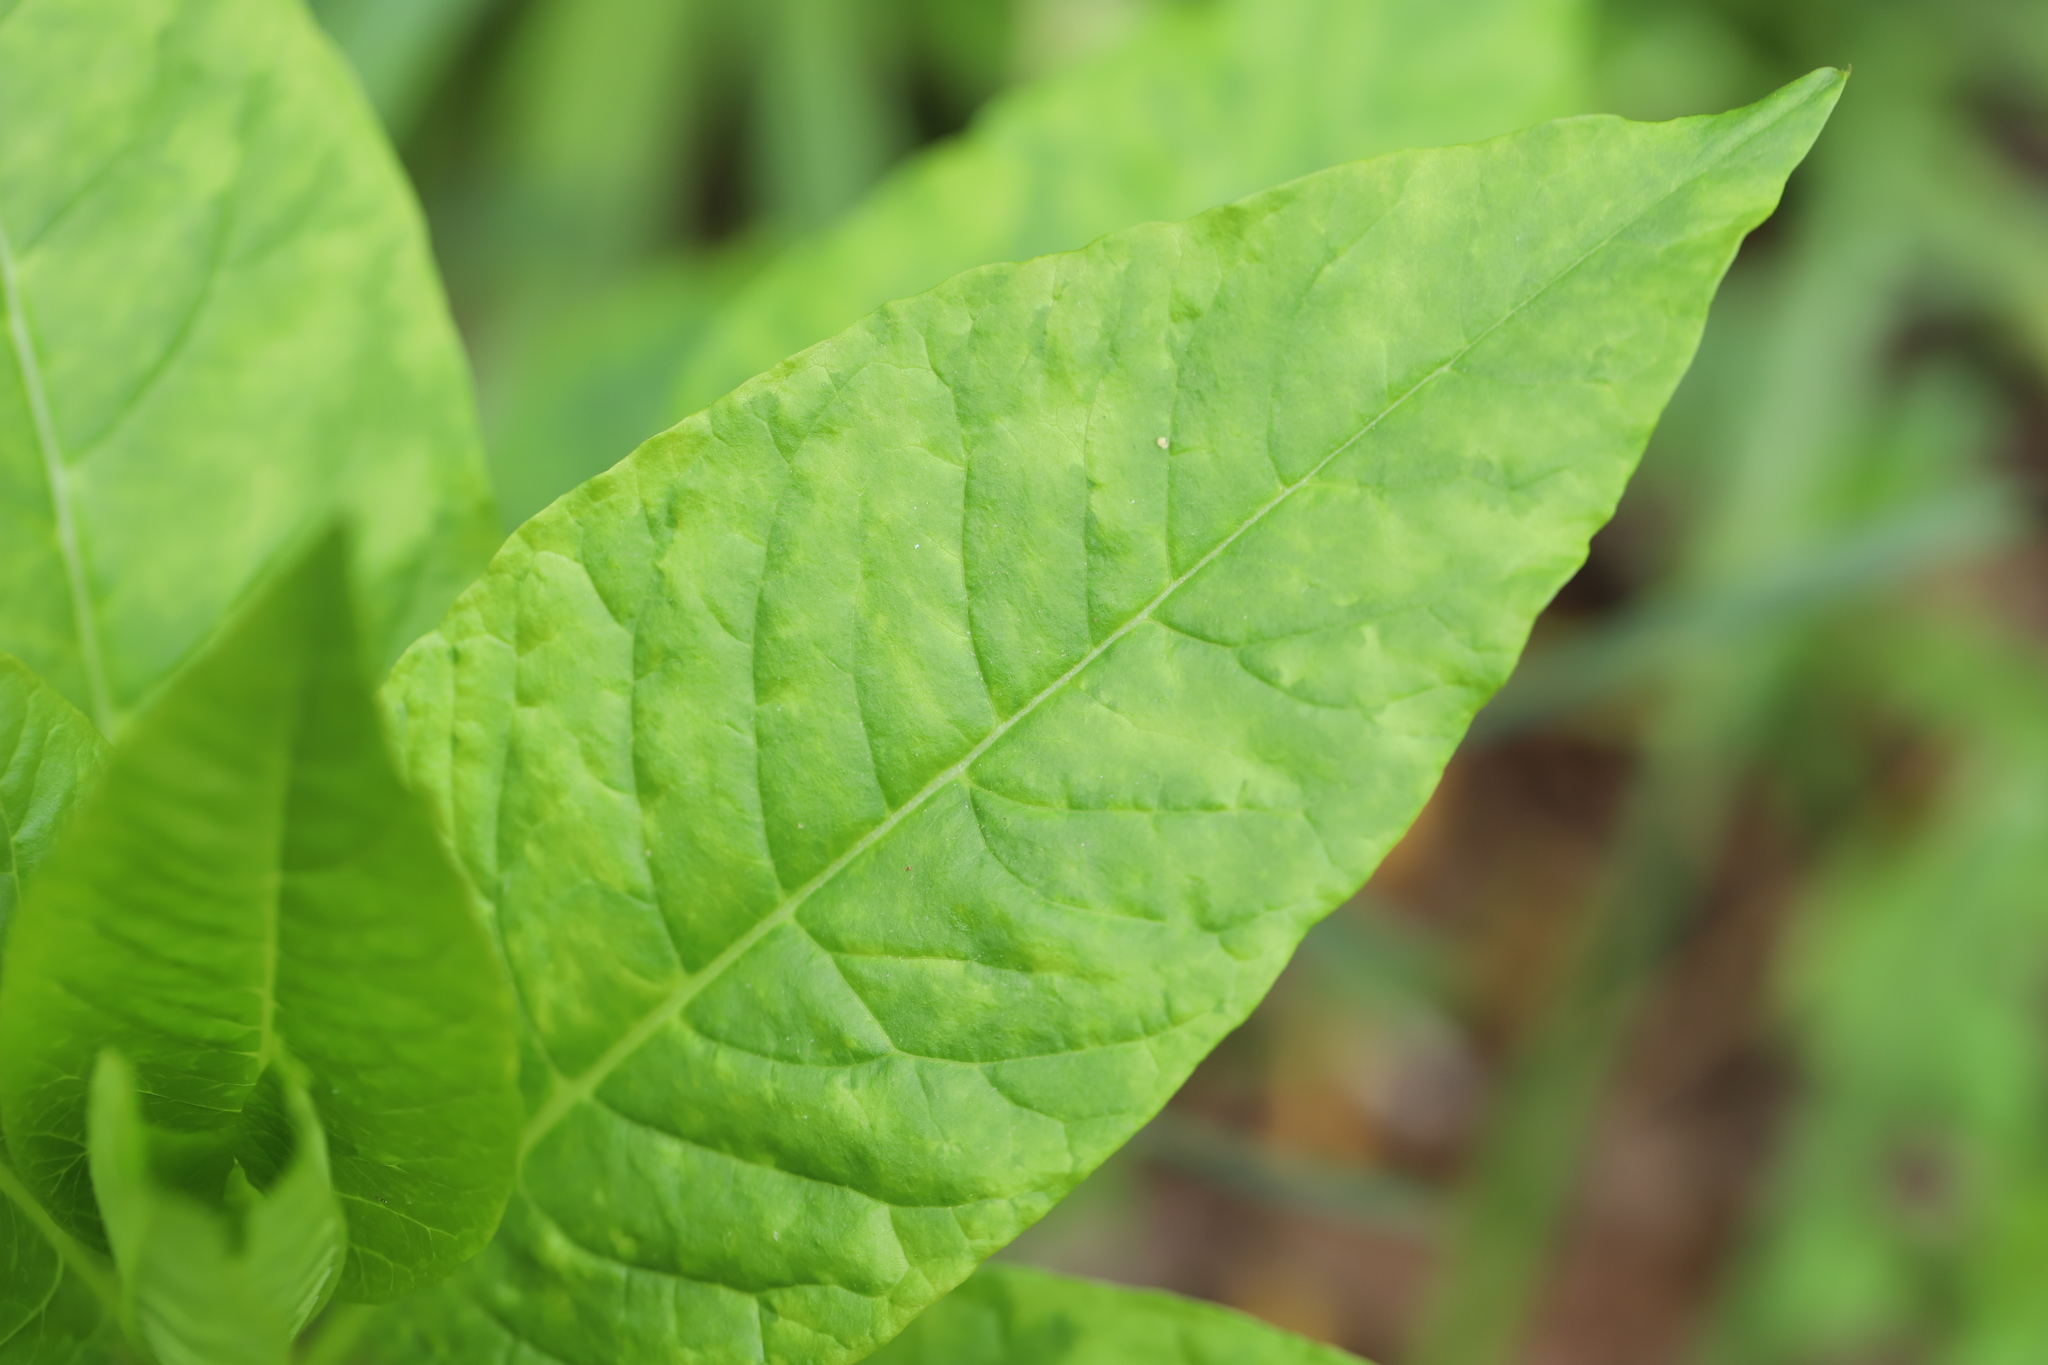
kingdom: Viruses
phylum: Pisuviricota
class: Stelpaviricetes
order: Patatavirales
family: Potyviridae
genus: Potyvirus
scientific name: Potyvirus Pokeweed mosaic virus
